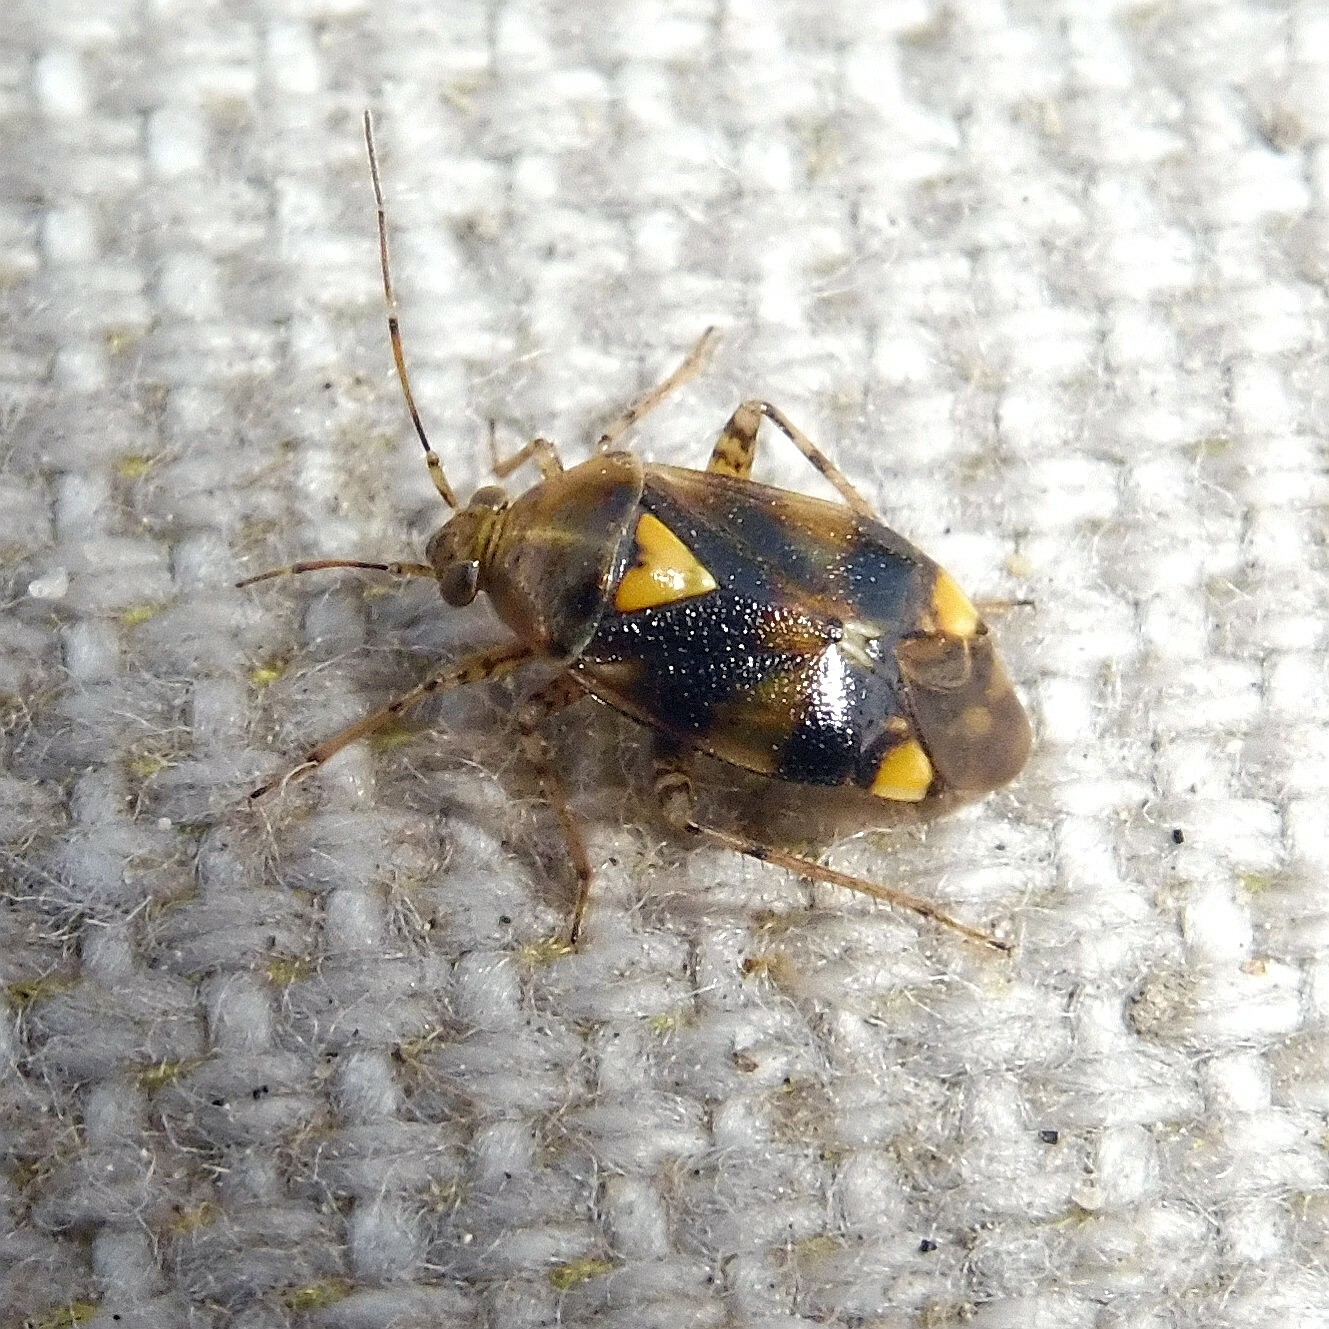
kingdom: Animalia
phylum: Arthropoda
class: Insecta
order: Hemiptera
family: Miridae
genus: Liocoris
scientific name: Liocoris tripustulatus
